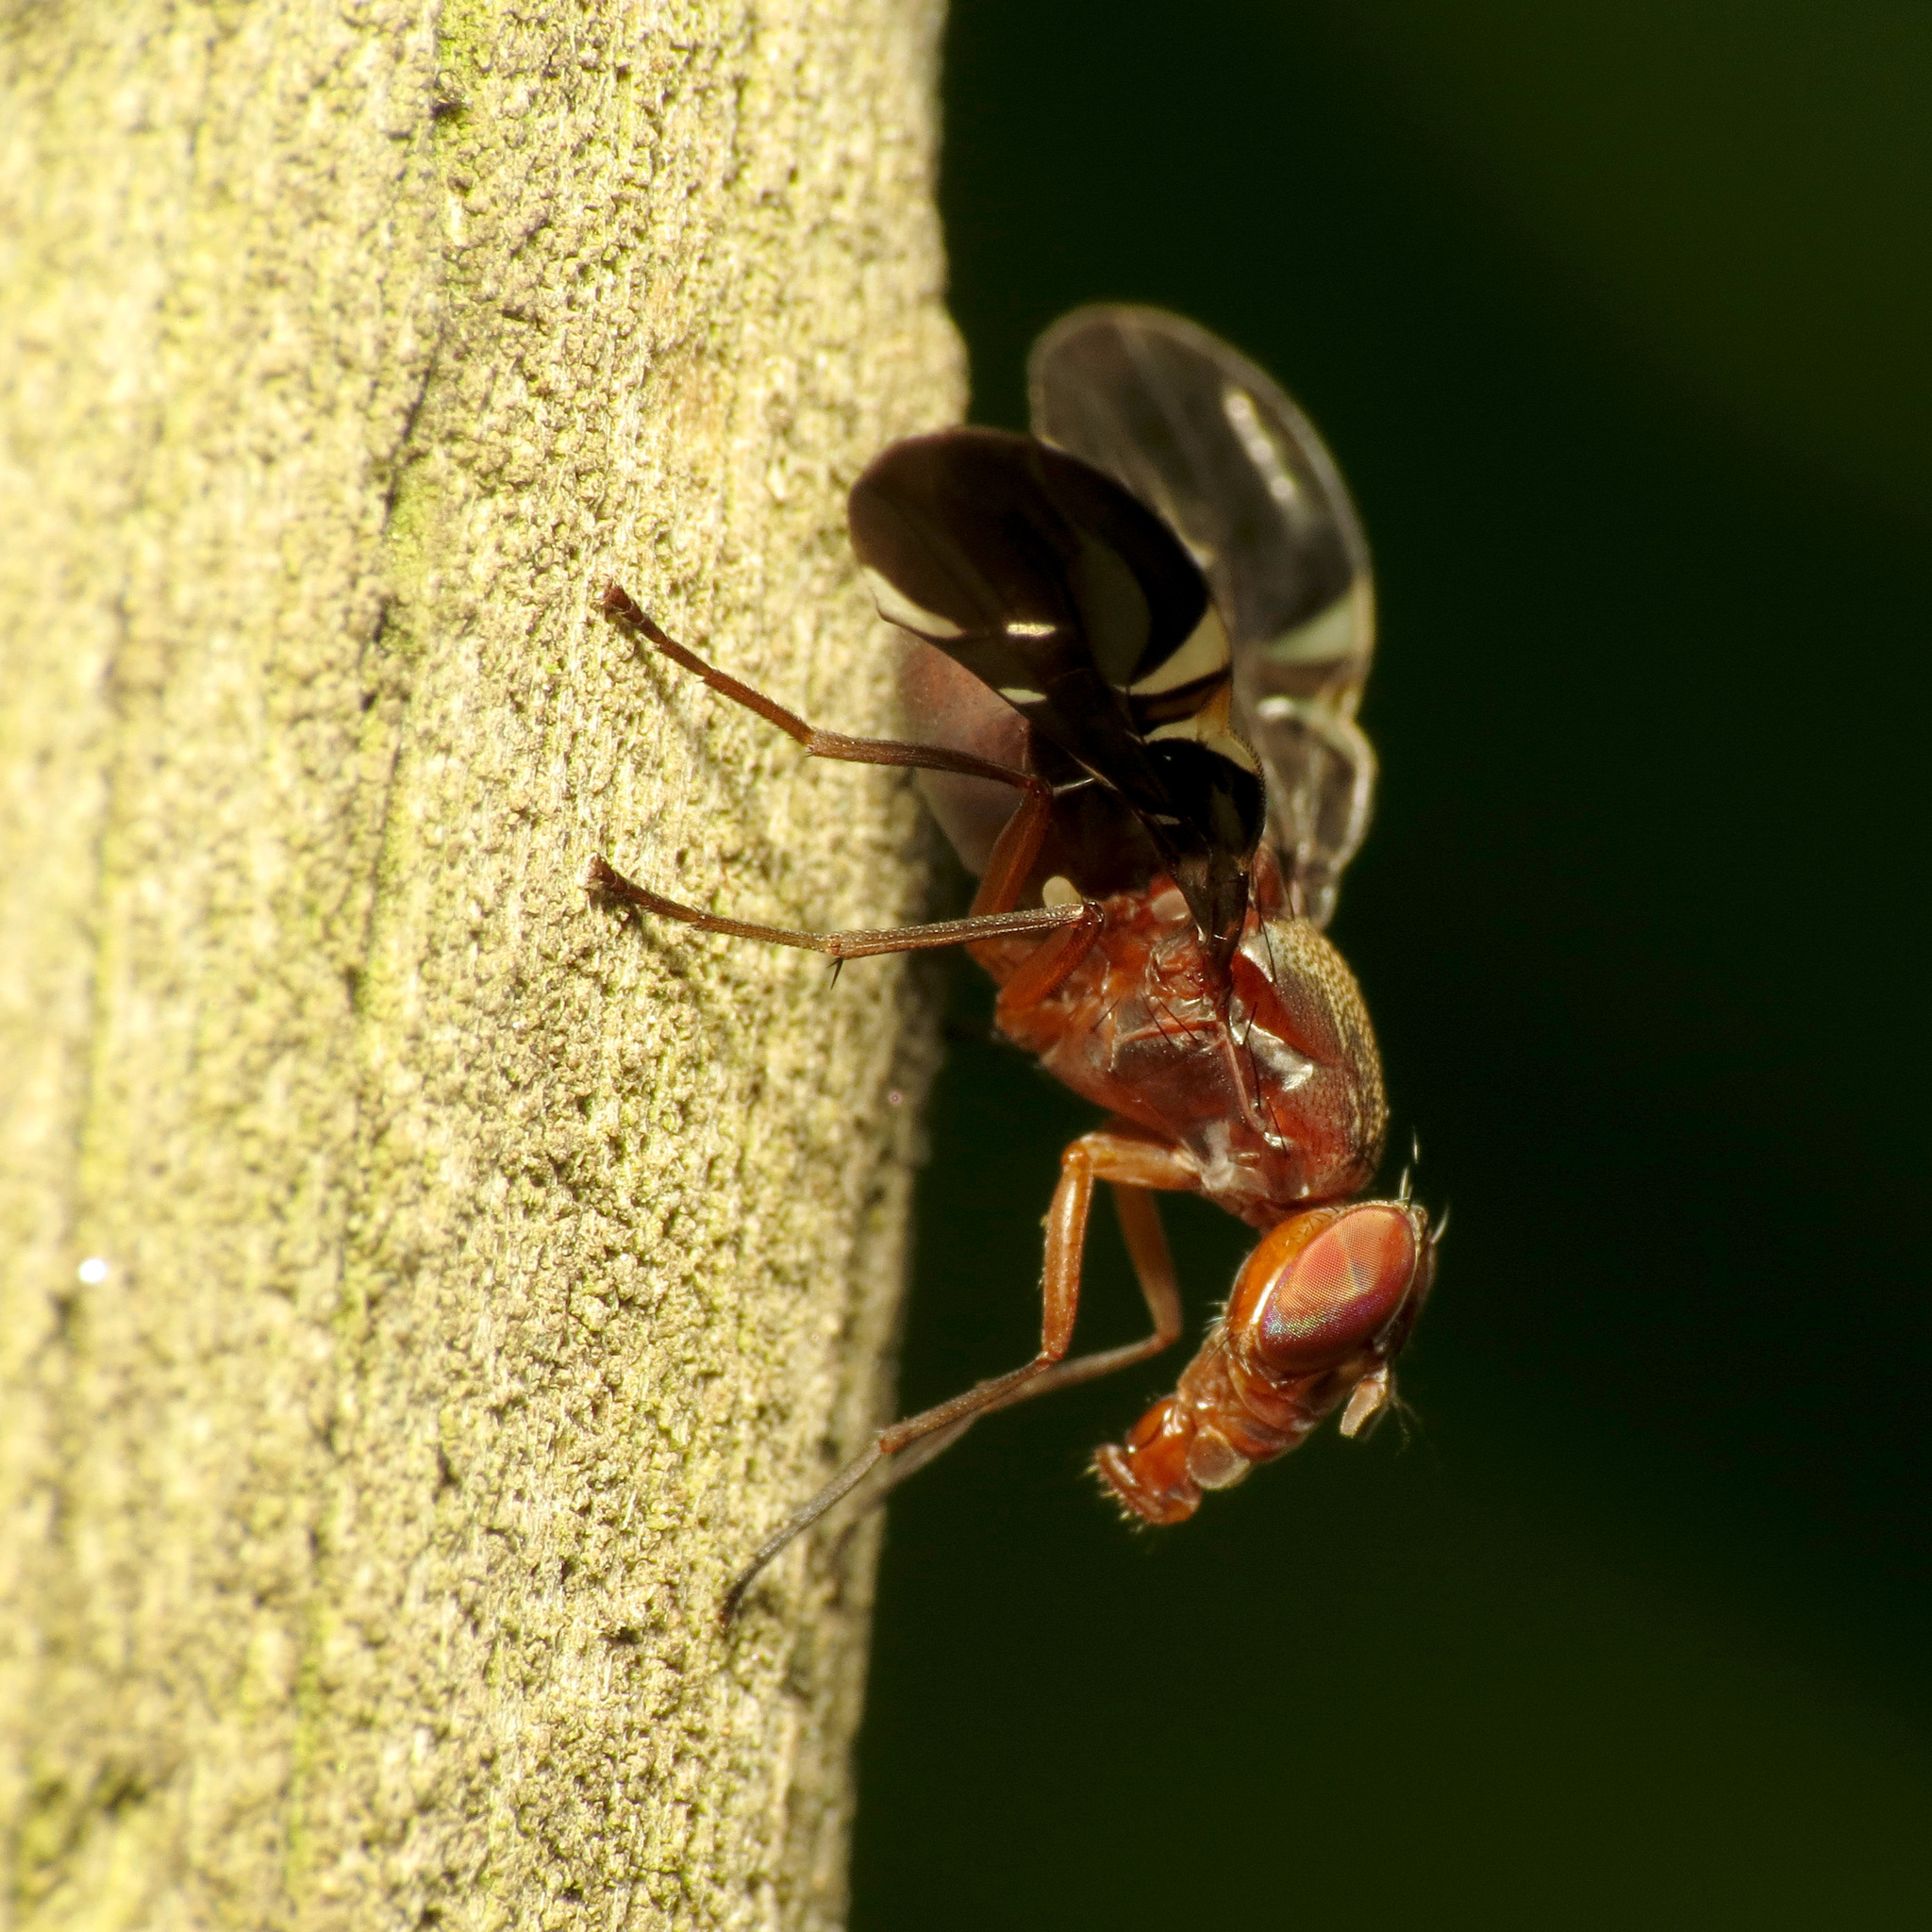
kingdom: Animalia
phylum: Arthropoda
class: Insecta
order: Diptera
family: Ulidiidae
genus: Delphinia
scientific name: Delphinia picta
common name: Common picture-winged fly
